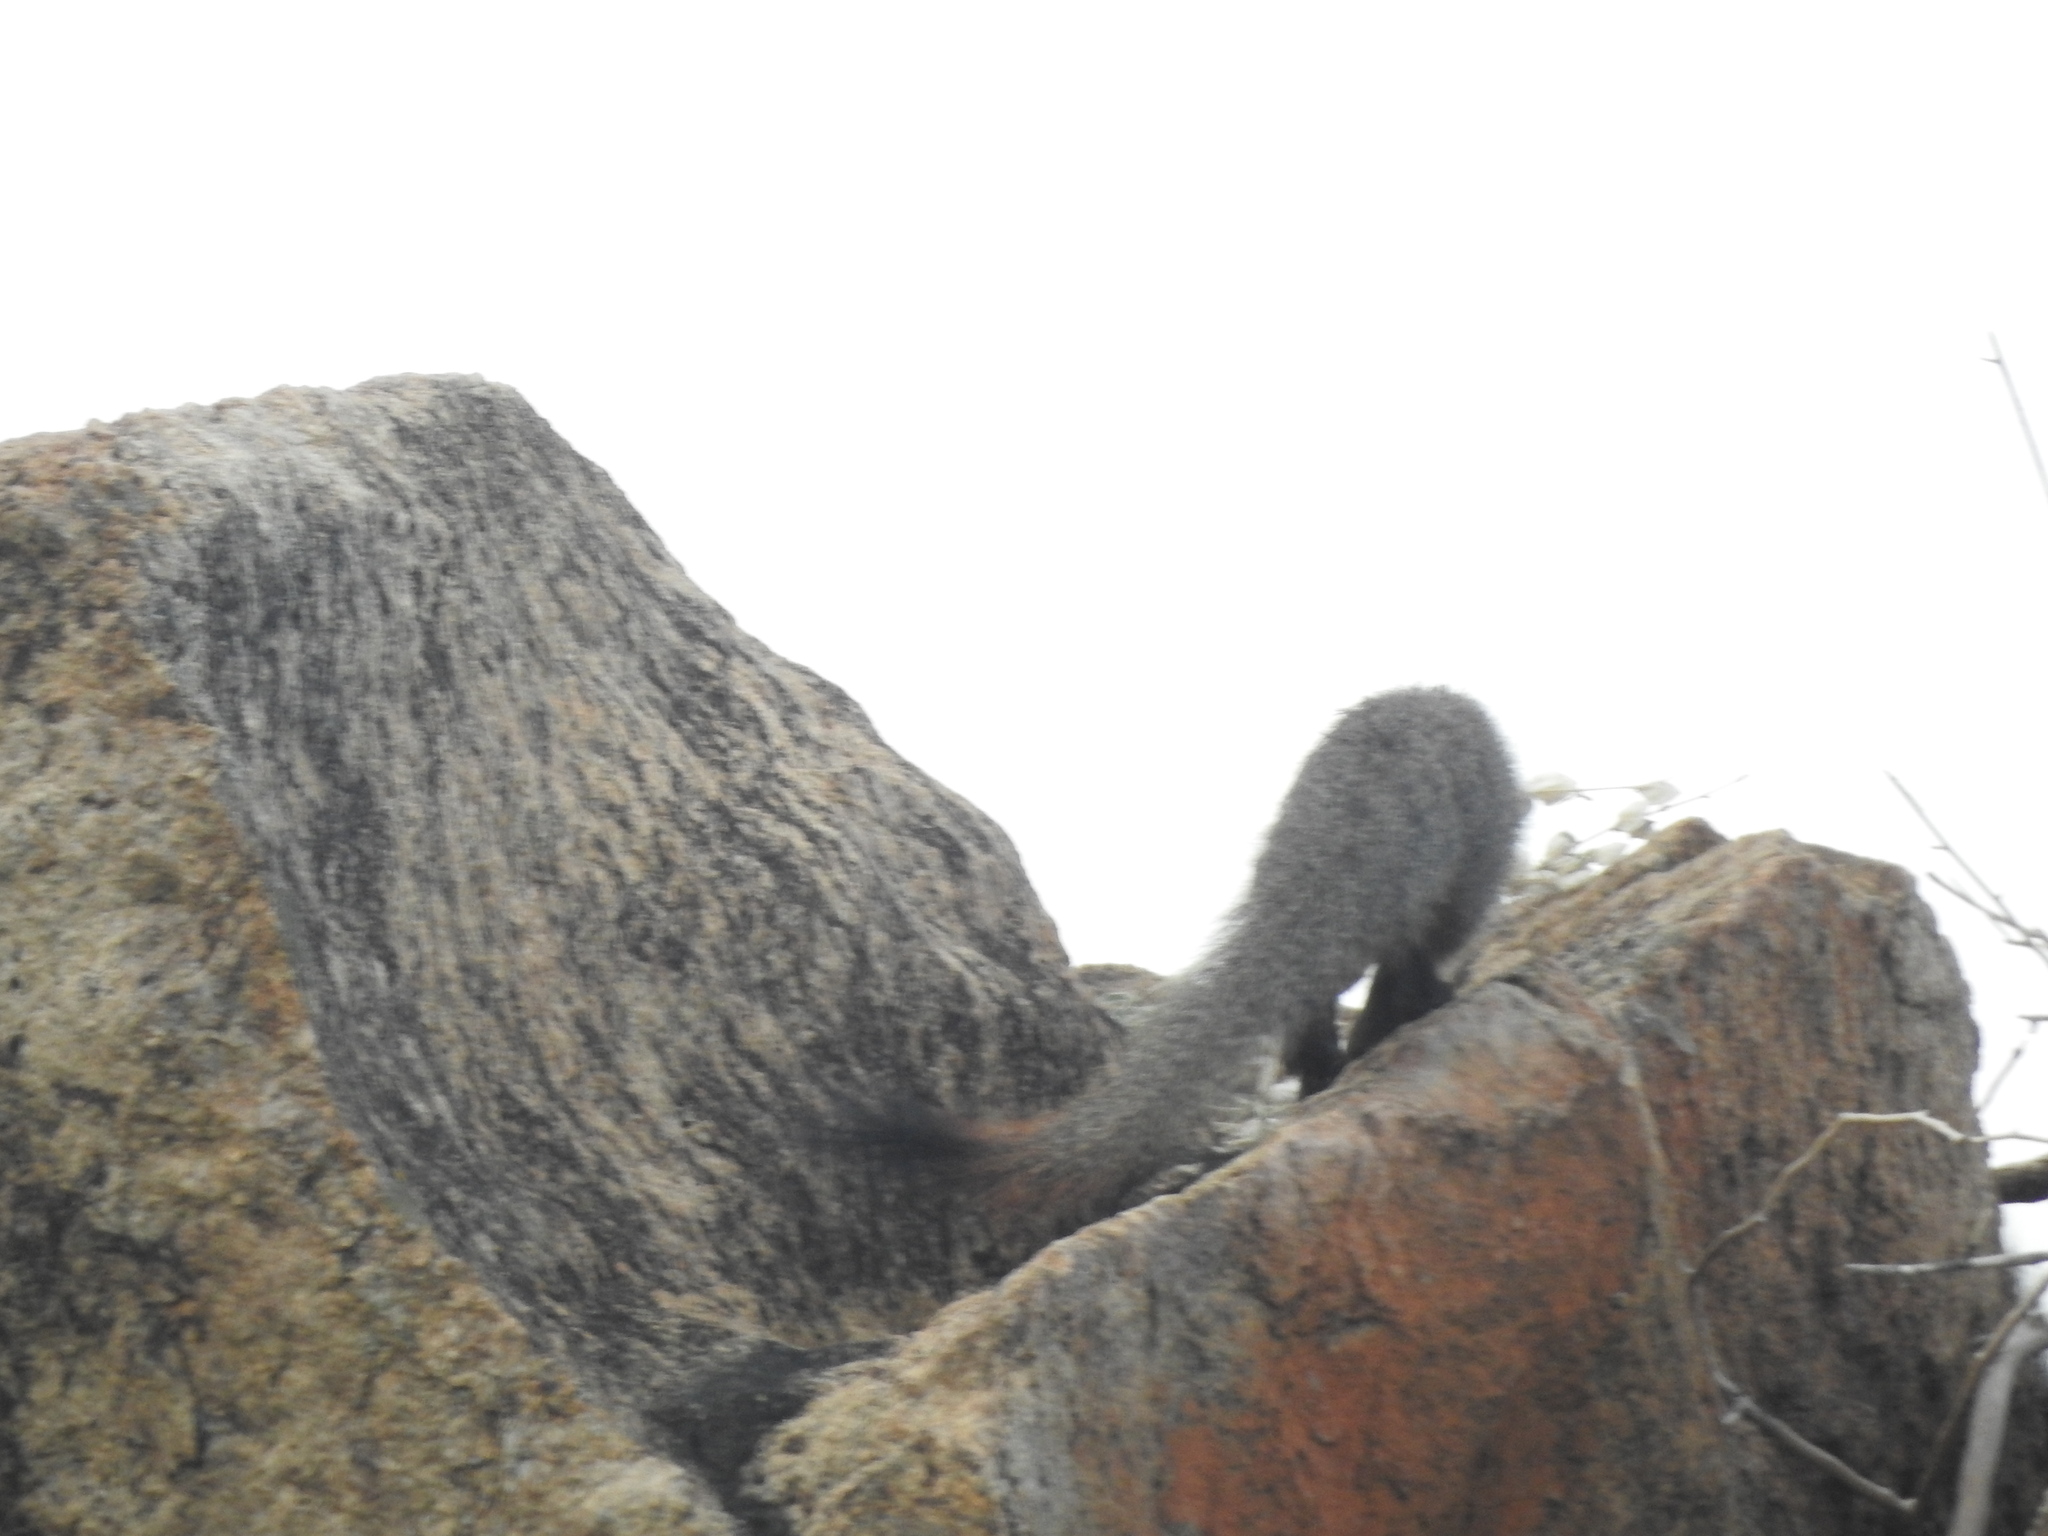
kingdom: Animalia
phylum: Chordata
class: Mammalia
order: Carnivora
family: Herpestidae
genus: Herpestes
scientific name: Herpestes smithii
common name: Ruddy mongoose
